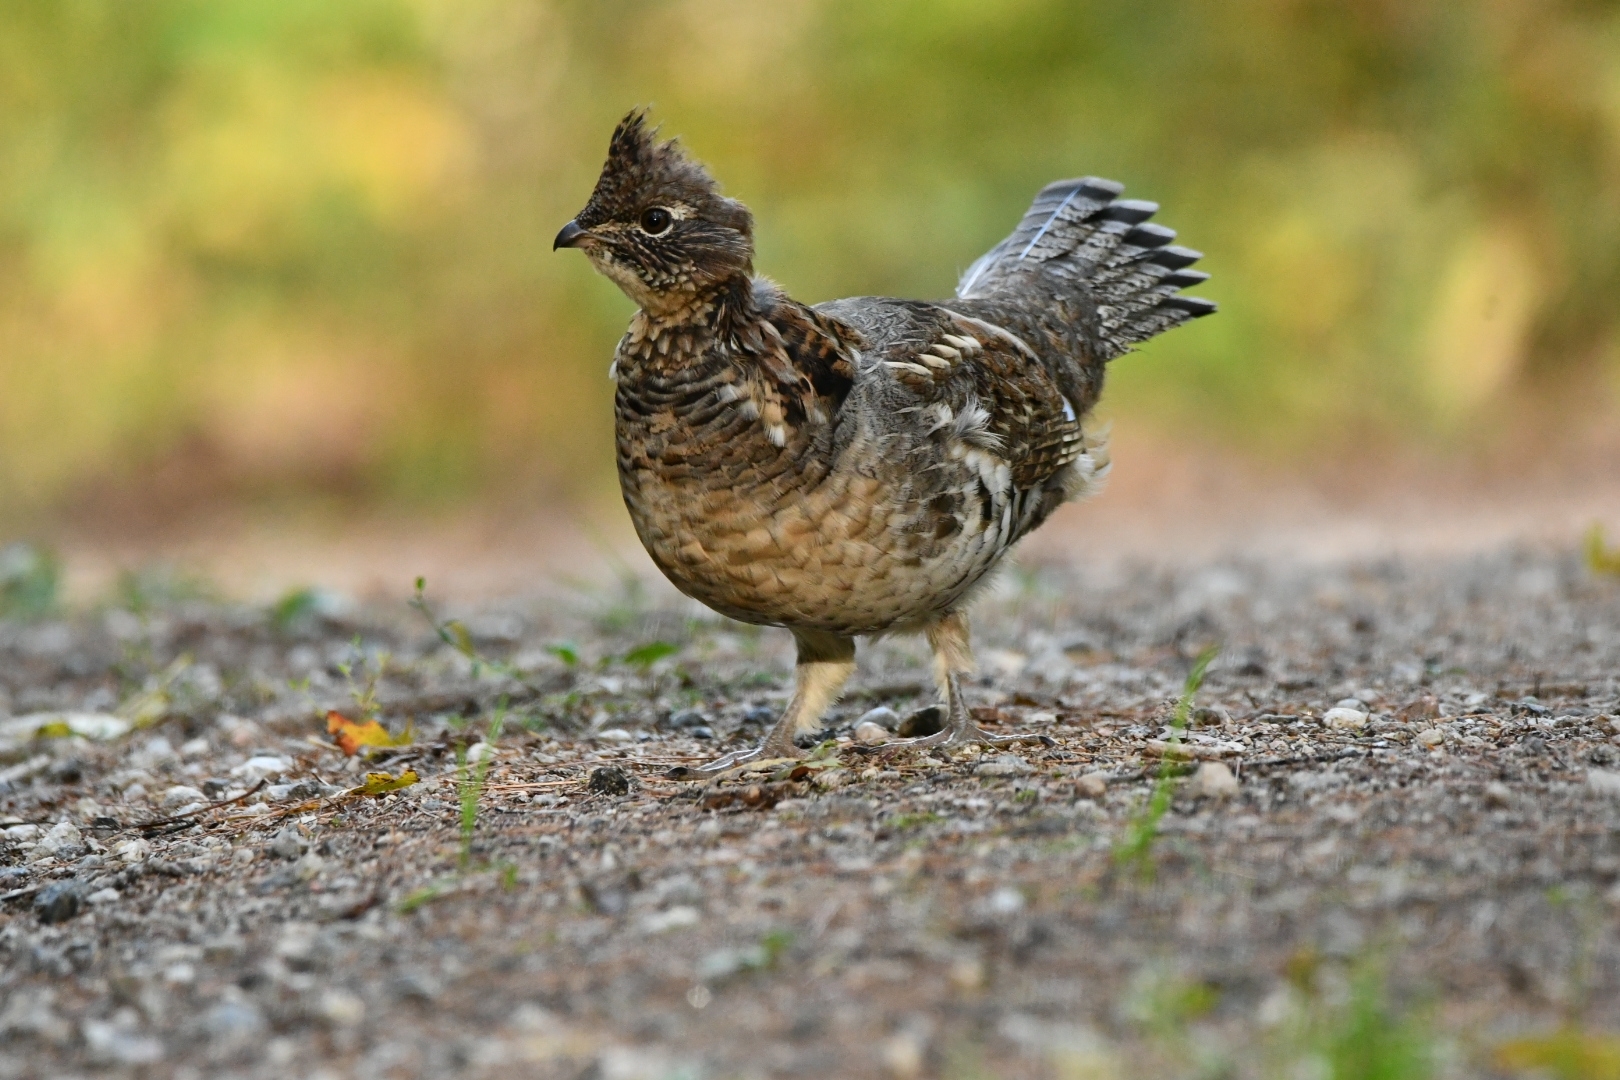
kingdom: Animalia
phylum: Chordata
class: Aves
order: Galliformes
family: Phasianidae
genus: Bonasa
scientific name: Bonasa umbellus
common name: Ruffed grouse
